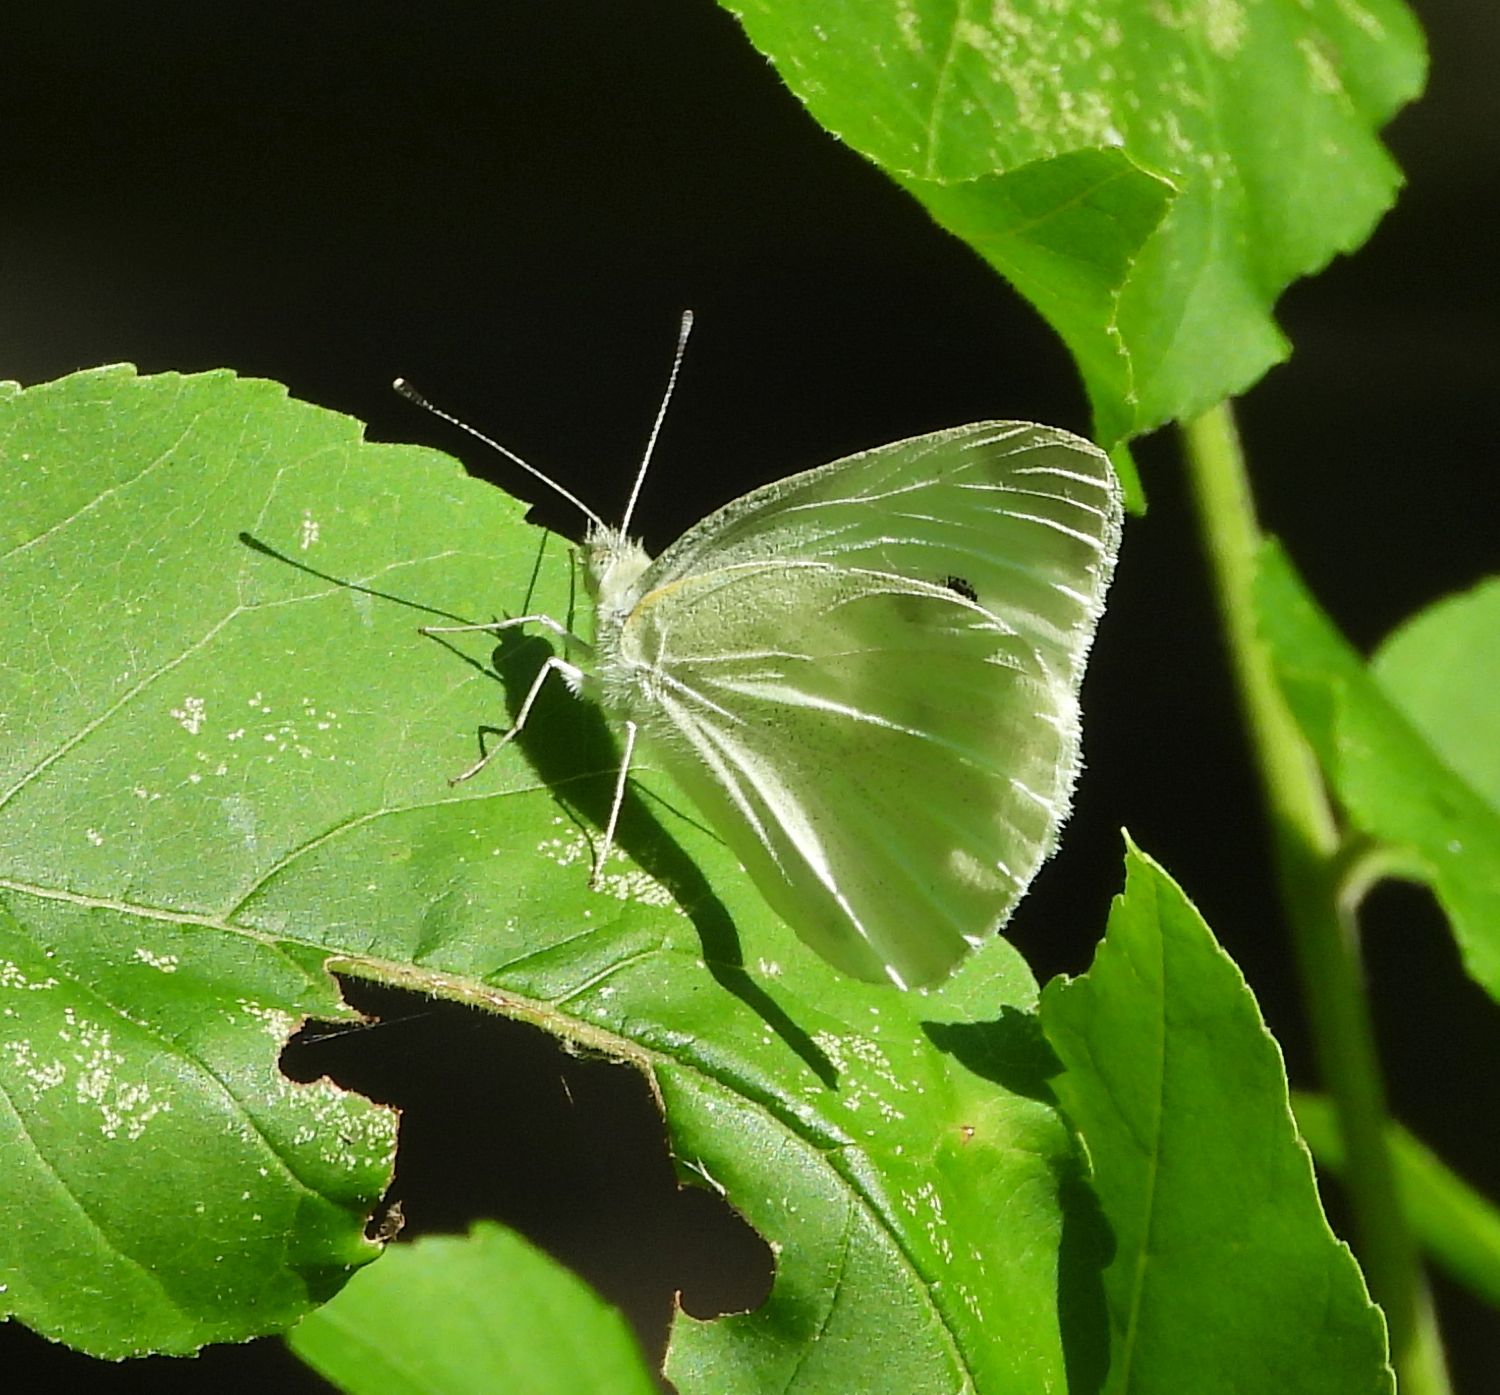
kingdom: Animalia
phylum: Arthropoda
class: Insecta
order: Lepidoptera
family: Pieridae
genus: Pieris
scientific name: Pieris rapae
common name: Small white
